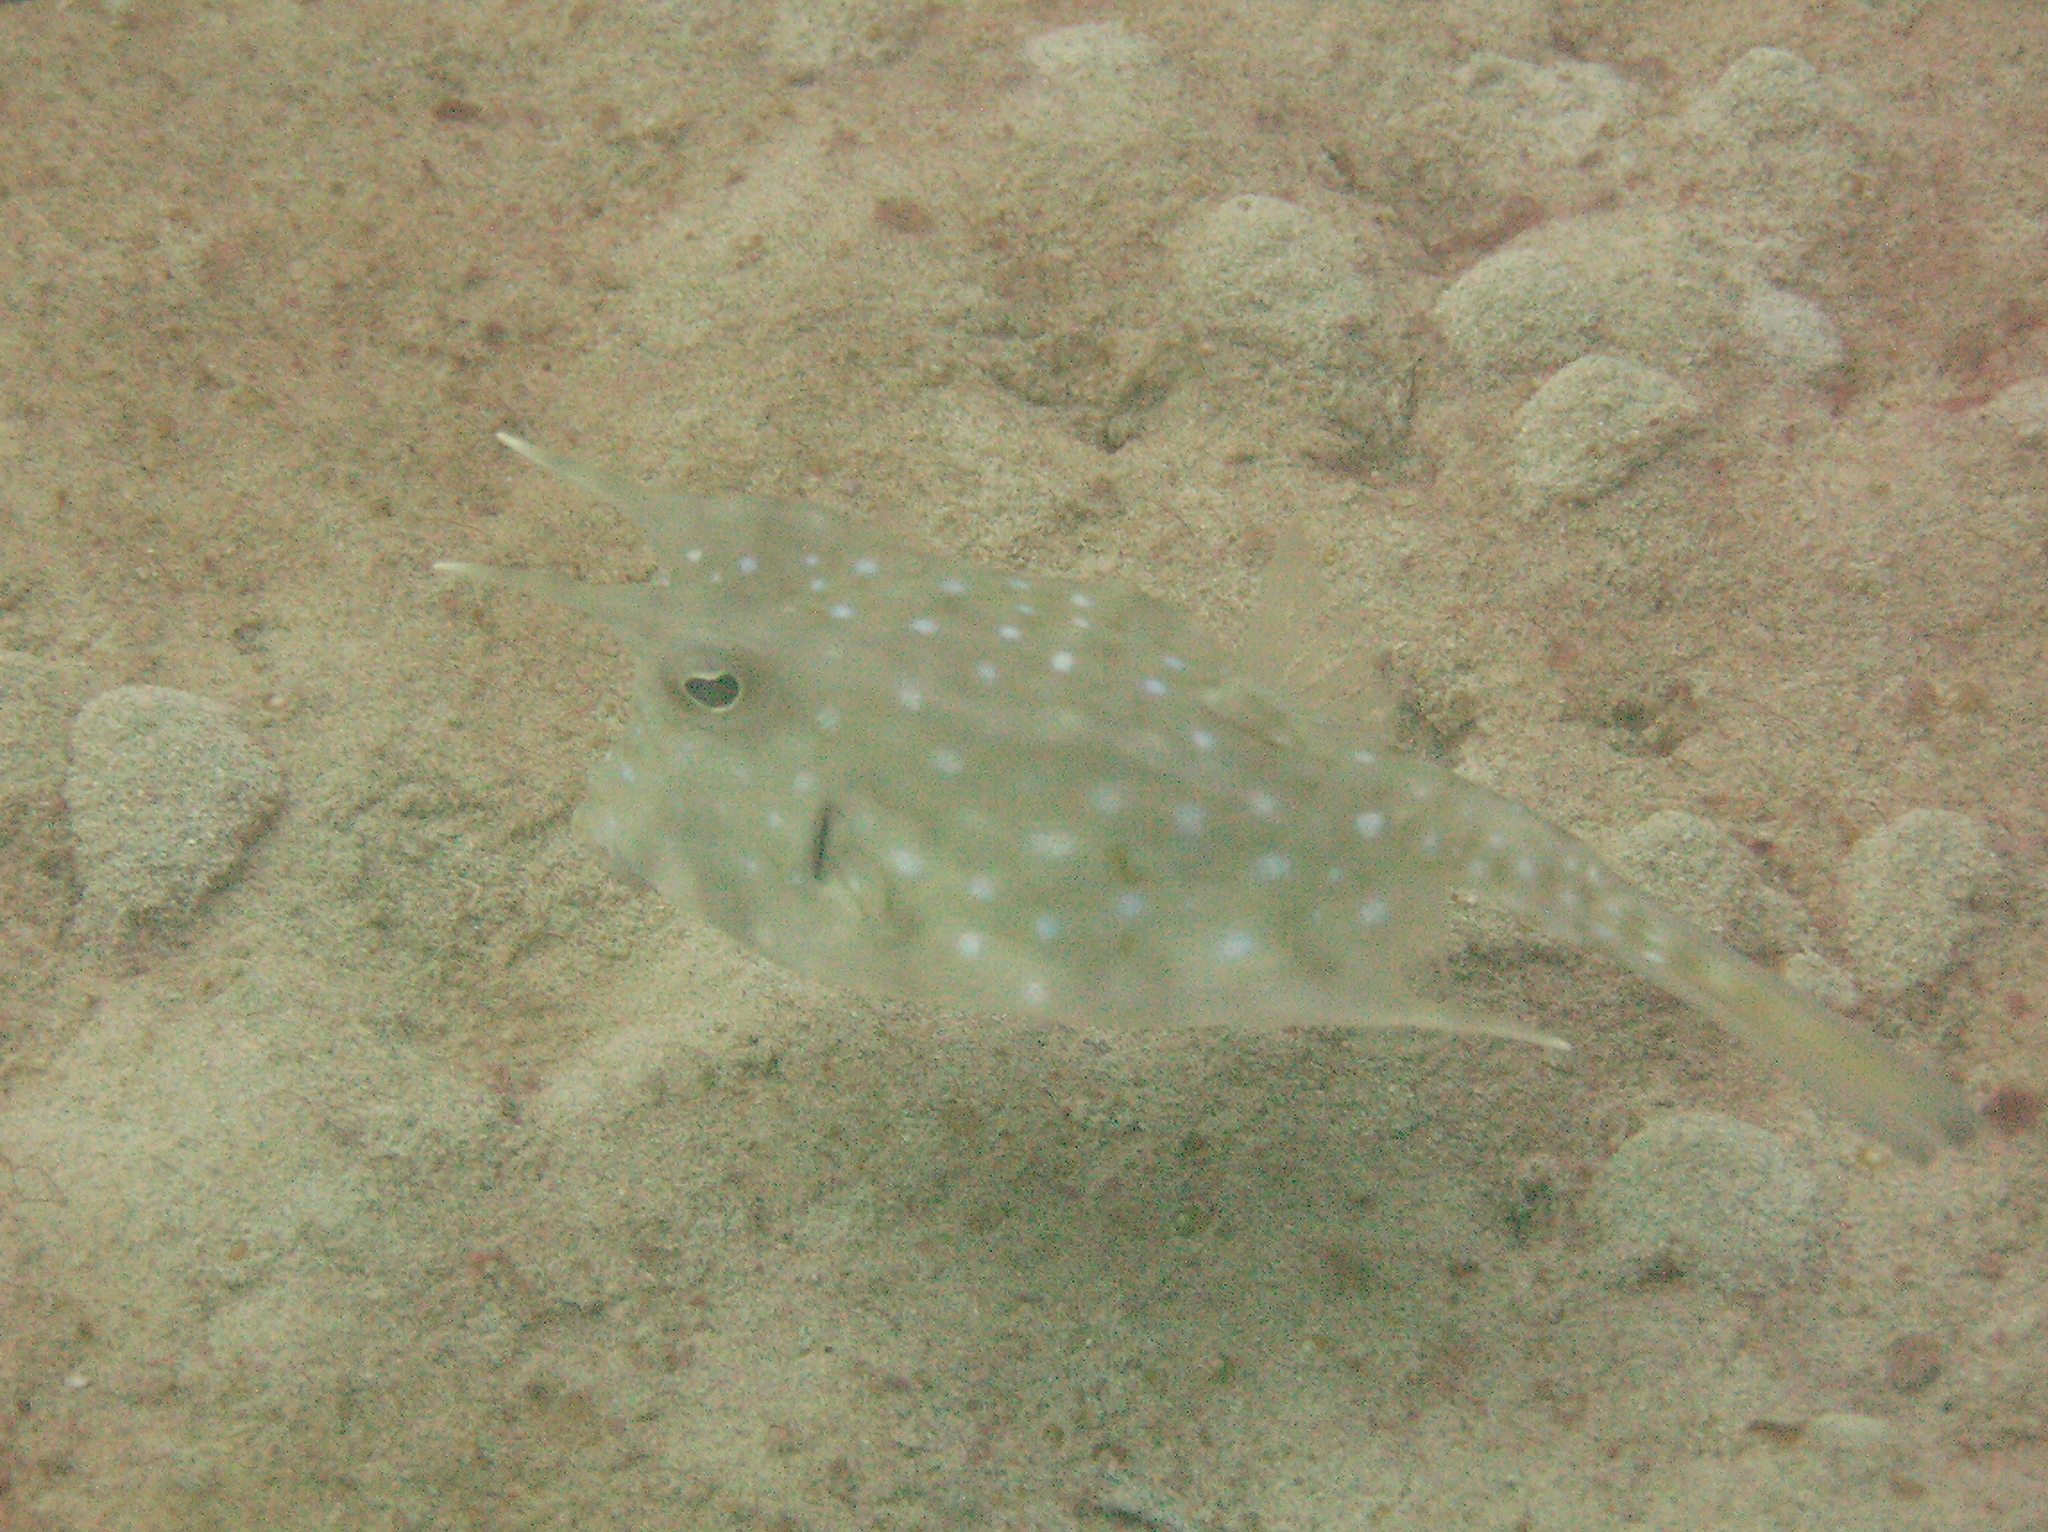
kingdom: Animalia
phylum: Chordata
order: Tetraodontiformes
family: Ostraciidae
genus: Lactoria
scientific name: Lactoria cornuta
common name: Longhorn cowfish
